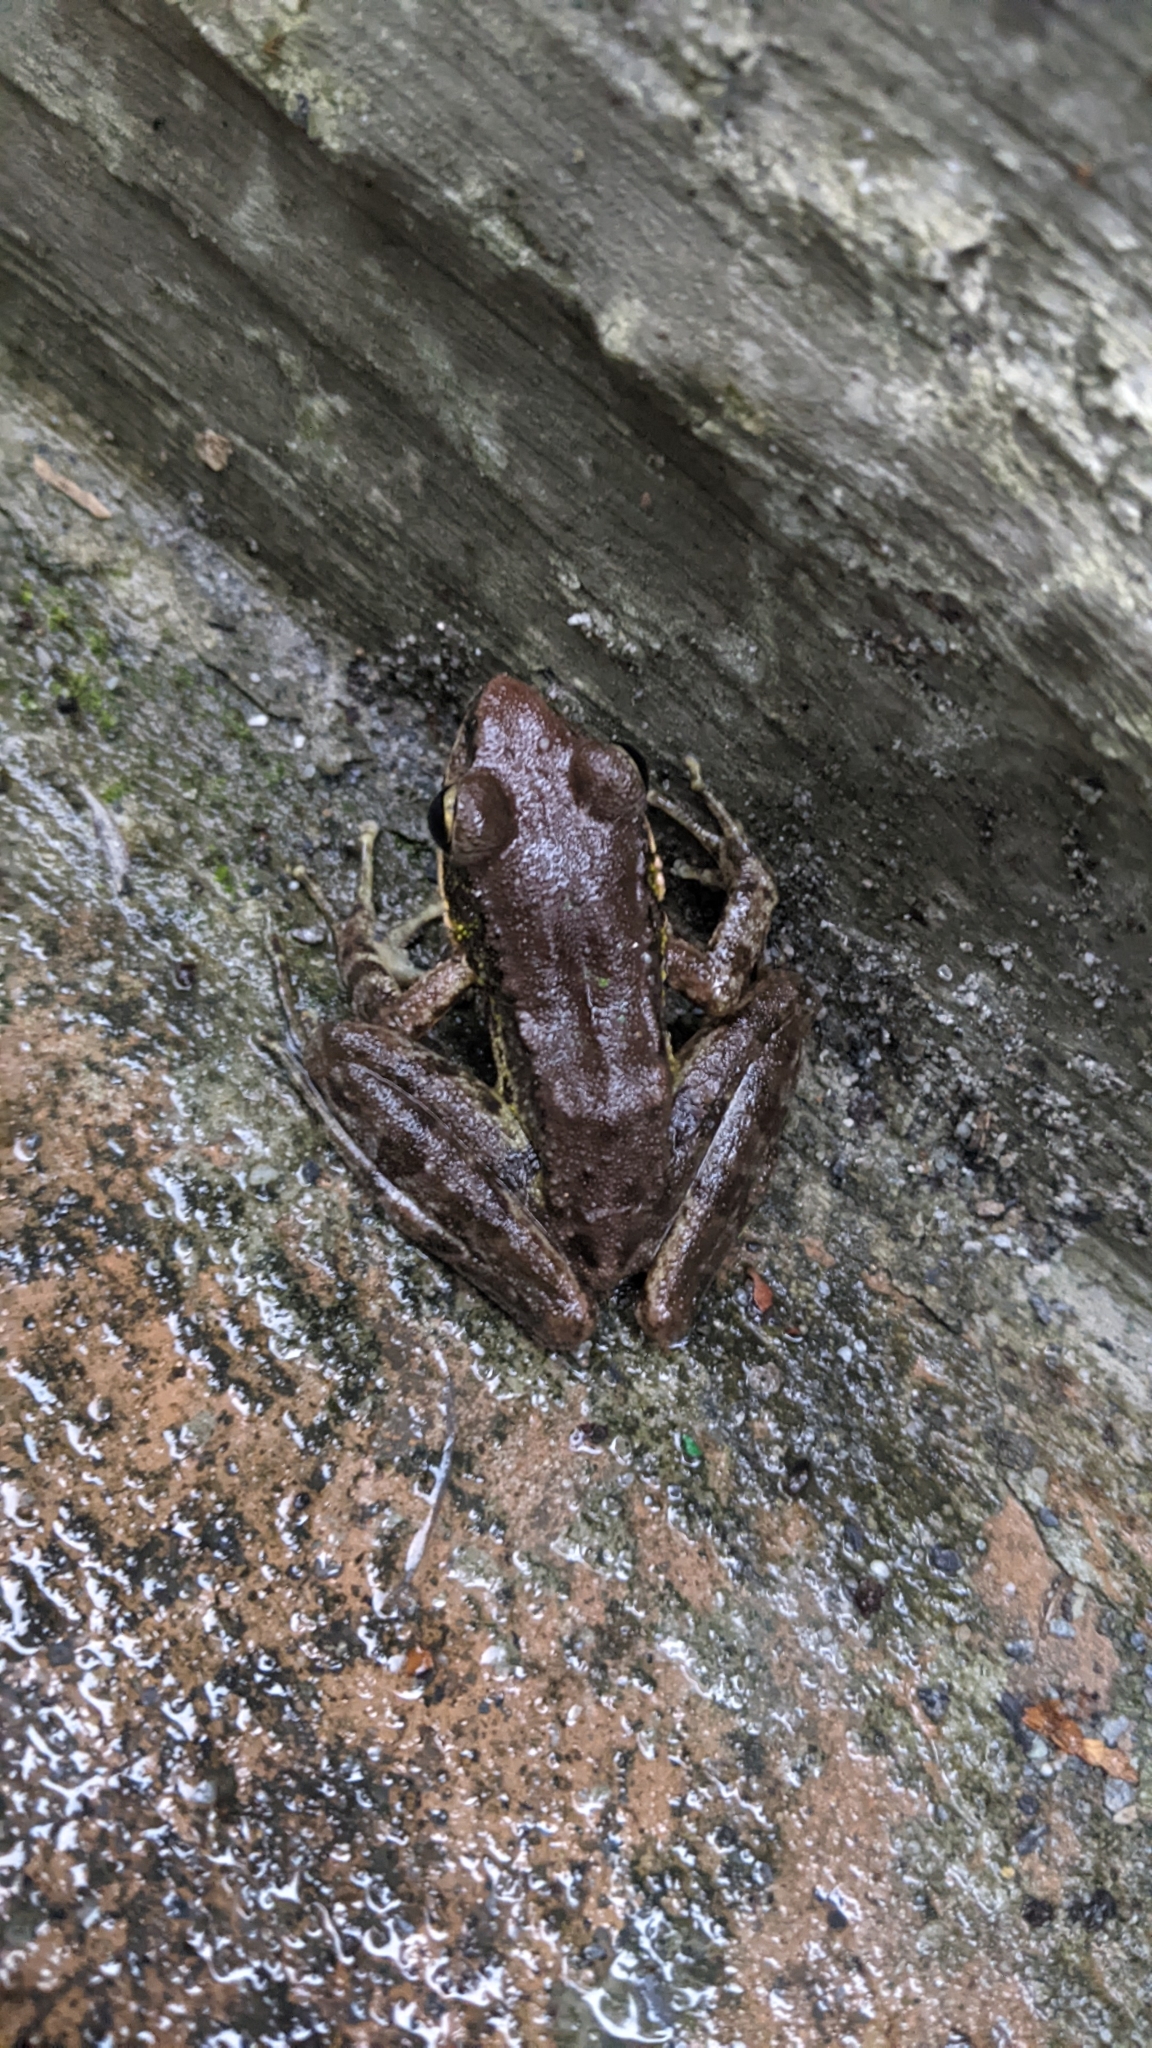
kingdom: Animalia
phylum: Chordata
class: Amphibia
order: Anura
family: Ranidae
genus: Odorrana
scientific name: Odorrana swinhoana
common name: Bangkimtsing frog
